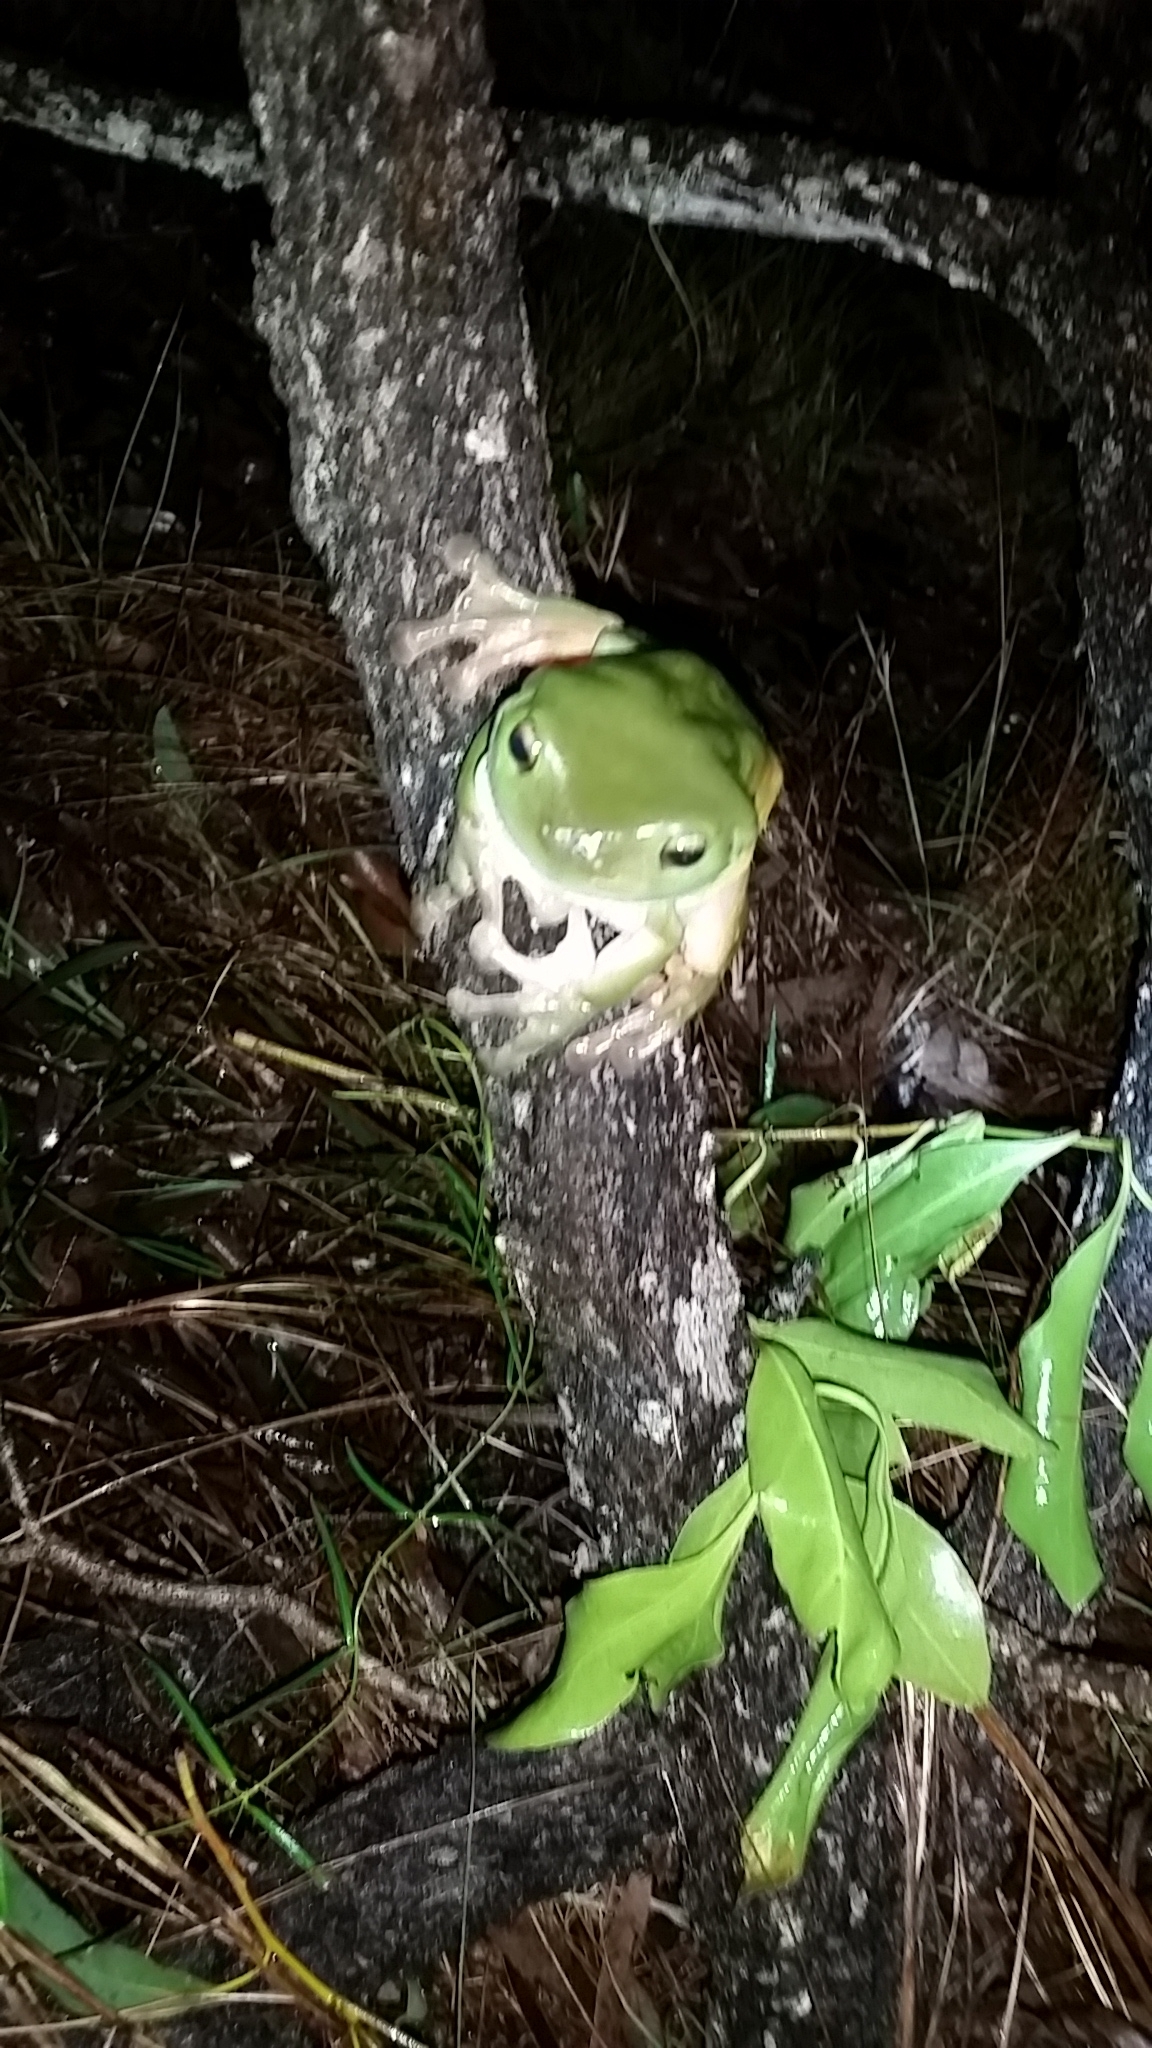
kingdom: Animalia
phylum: Chordata
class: Amphibia
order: Anura
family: Pelodryadidae
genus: Ranoidea
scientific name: Ranoidea caerulea
